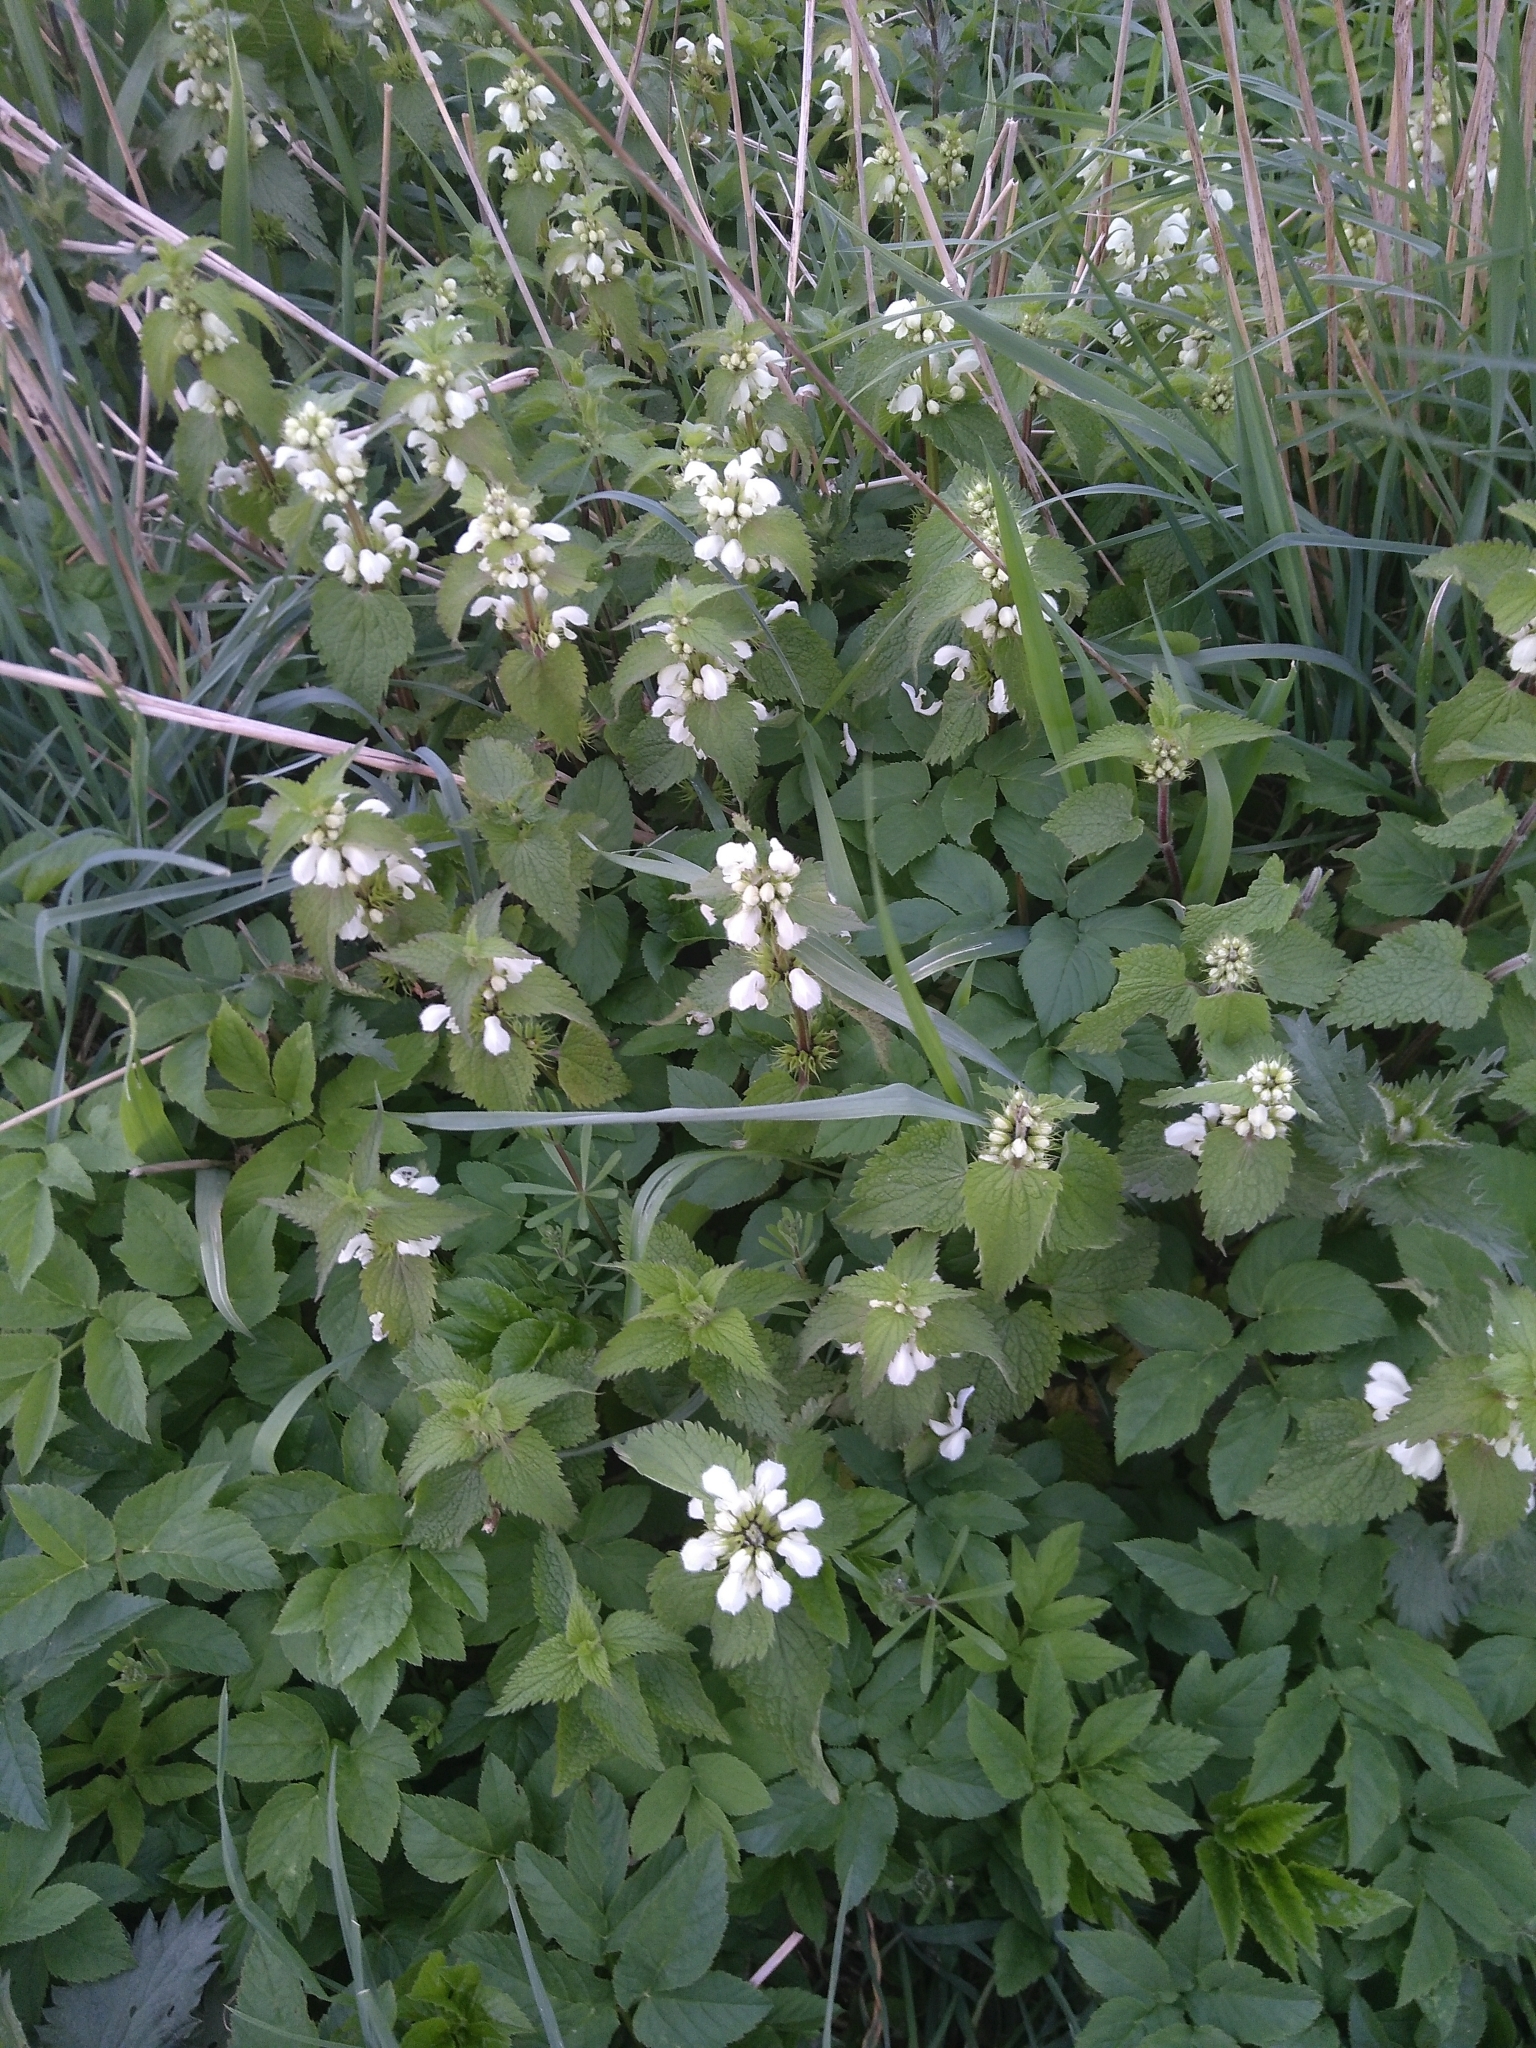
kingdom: Plantae
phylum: Tracheophyta
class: Magnoliopsida
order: Lamiales
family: Lamiaceae
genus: Lamium
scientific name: Lamium album
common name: White dead-nettle
